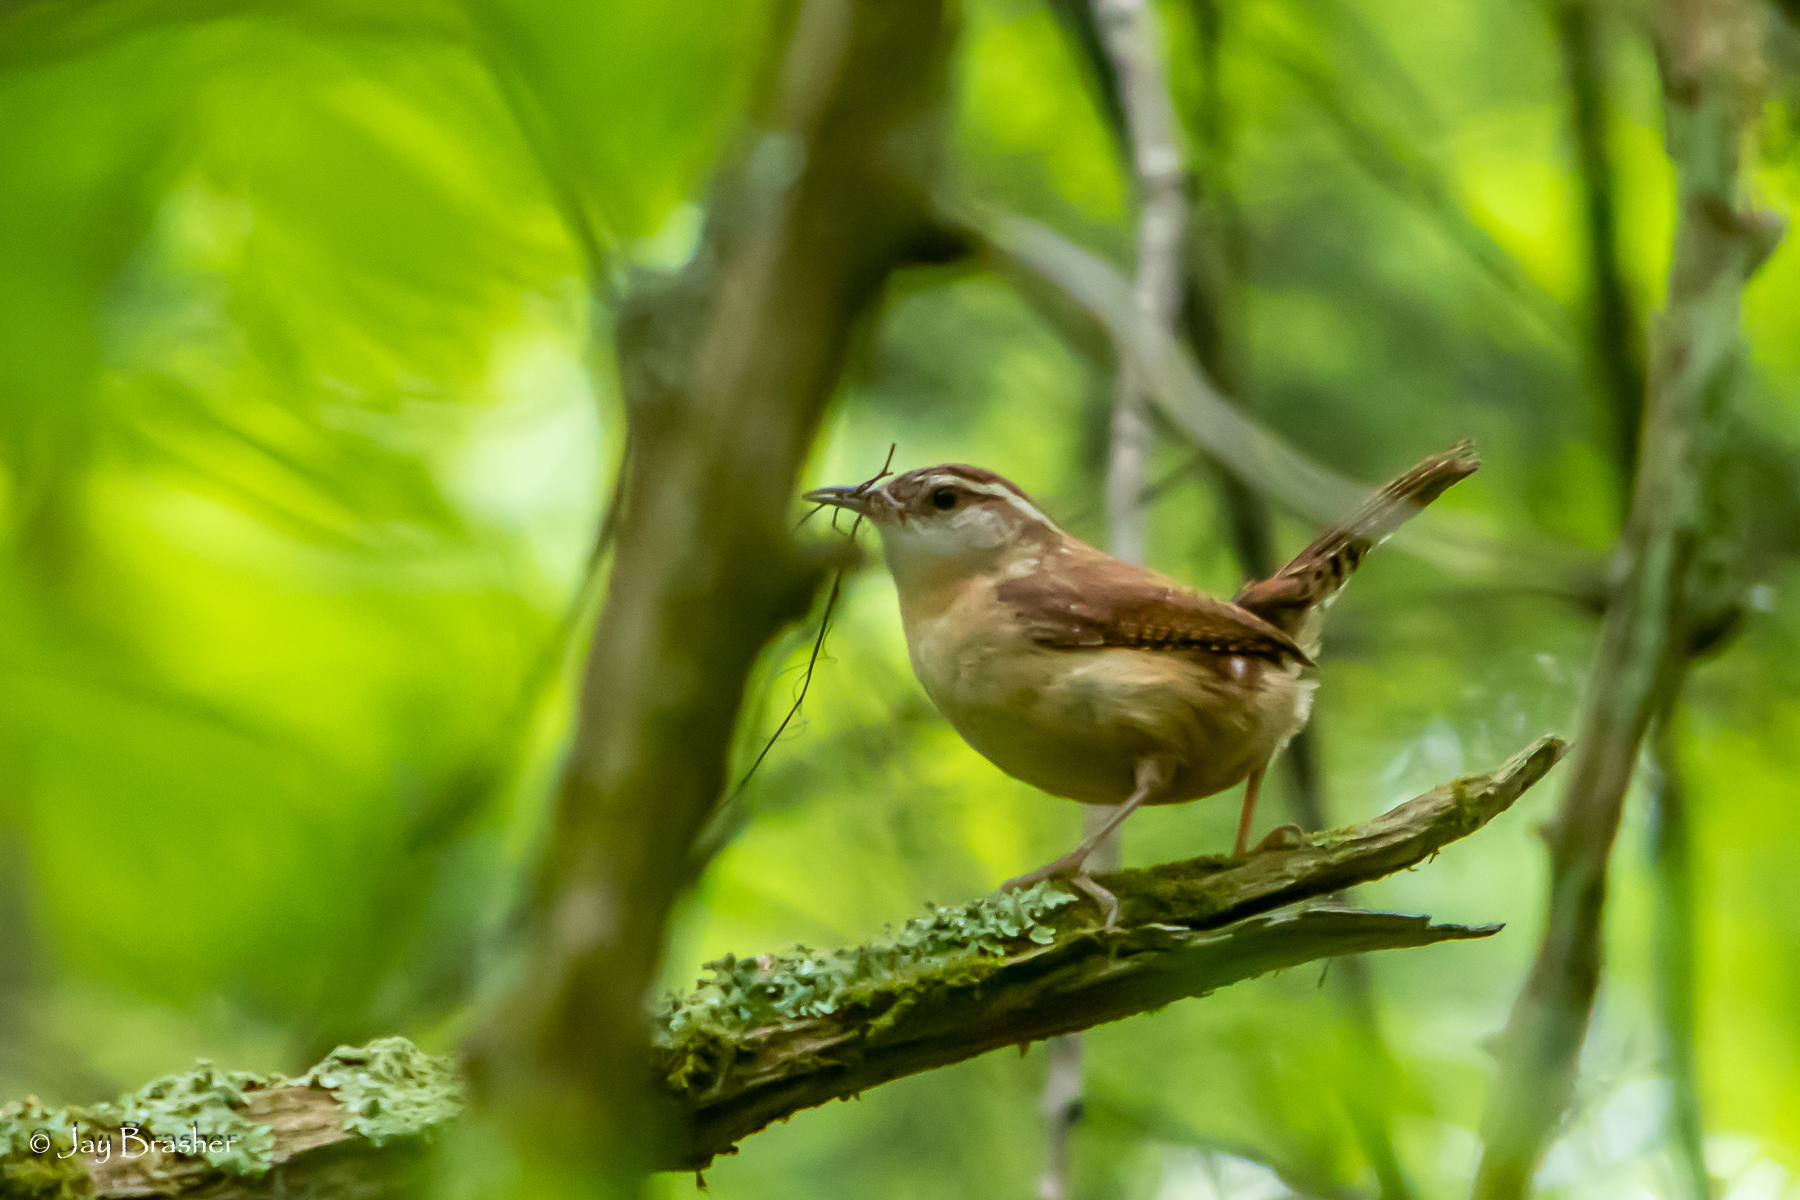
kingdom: Animalia
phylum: Chordata
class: Aves
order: Passeriformes
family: Troglodytidae
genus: Thryothorus
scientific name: Thryothorus ludovicianus
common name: Carolina wren
